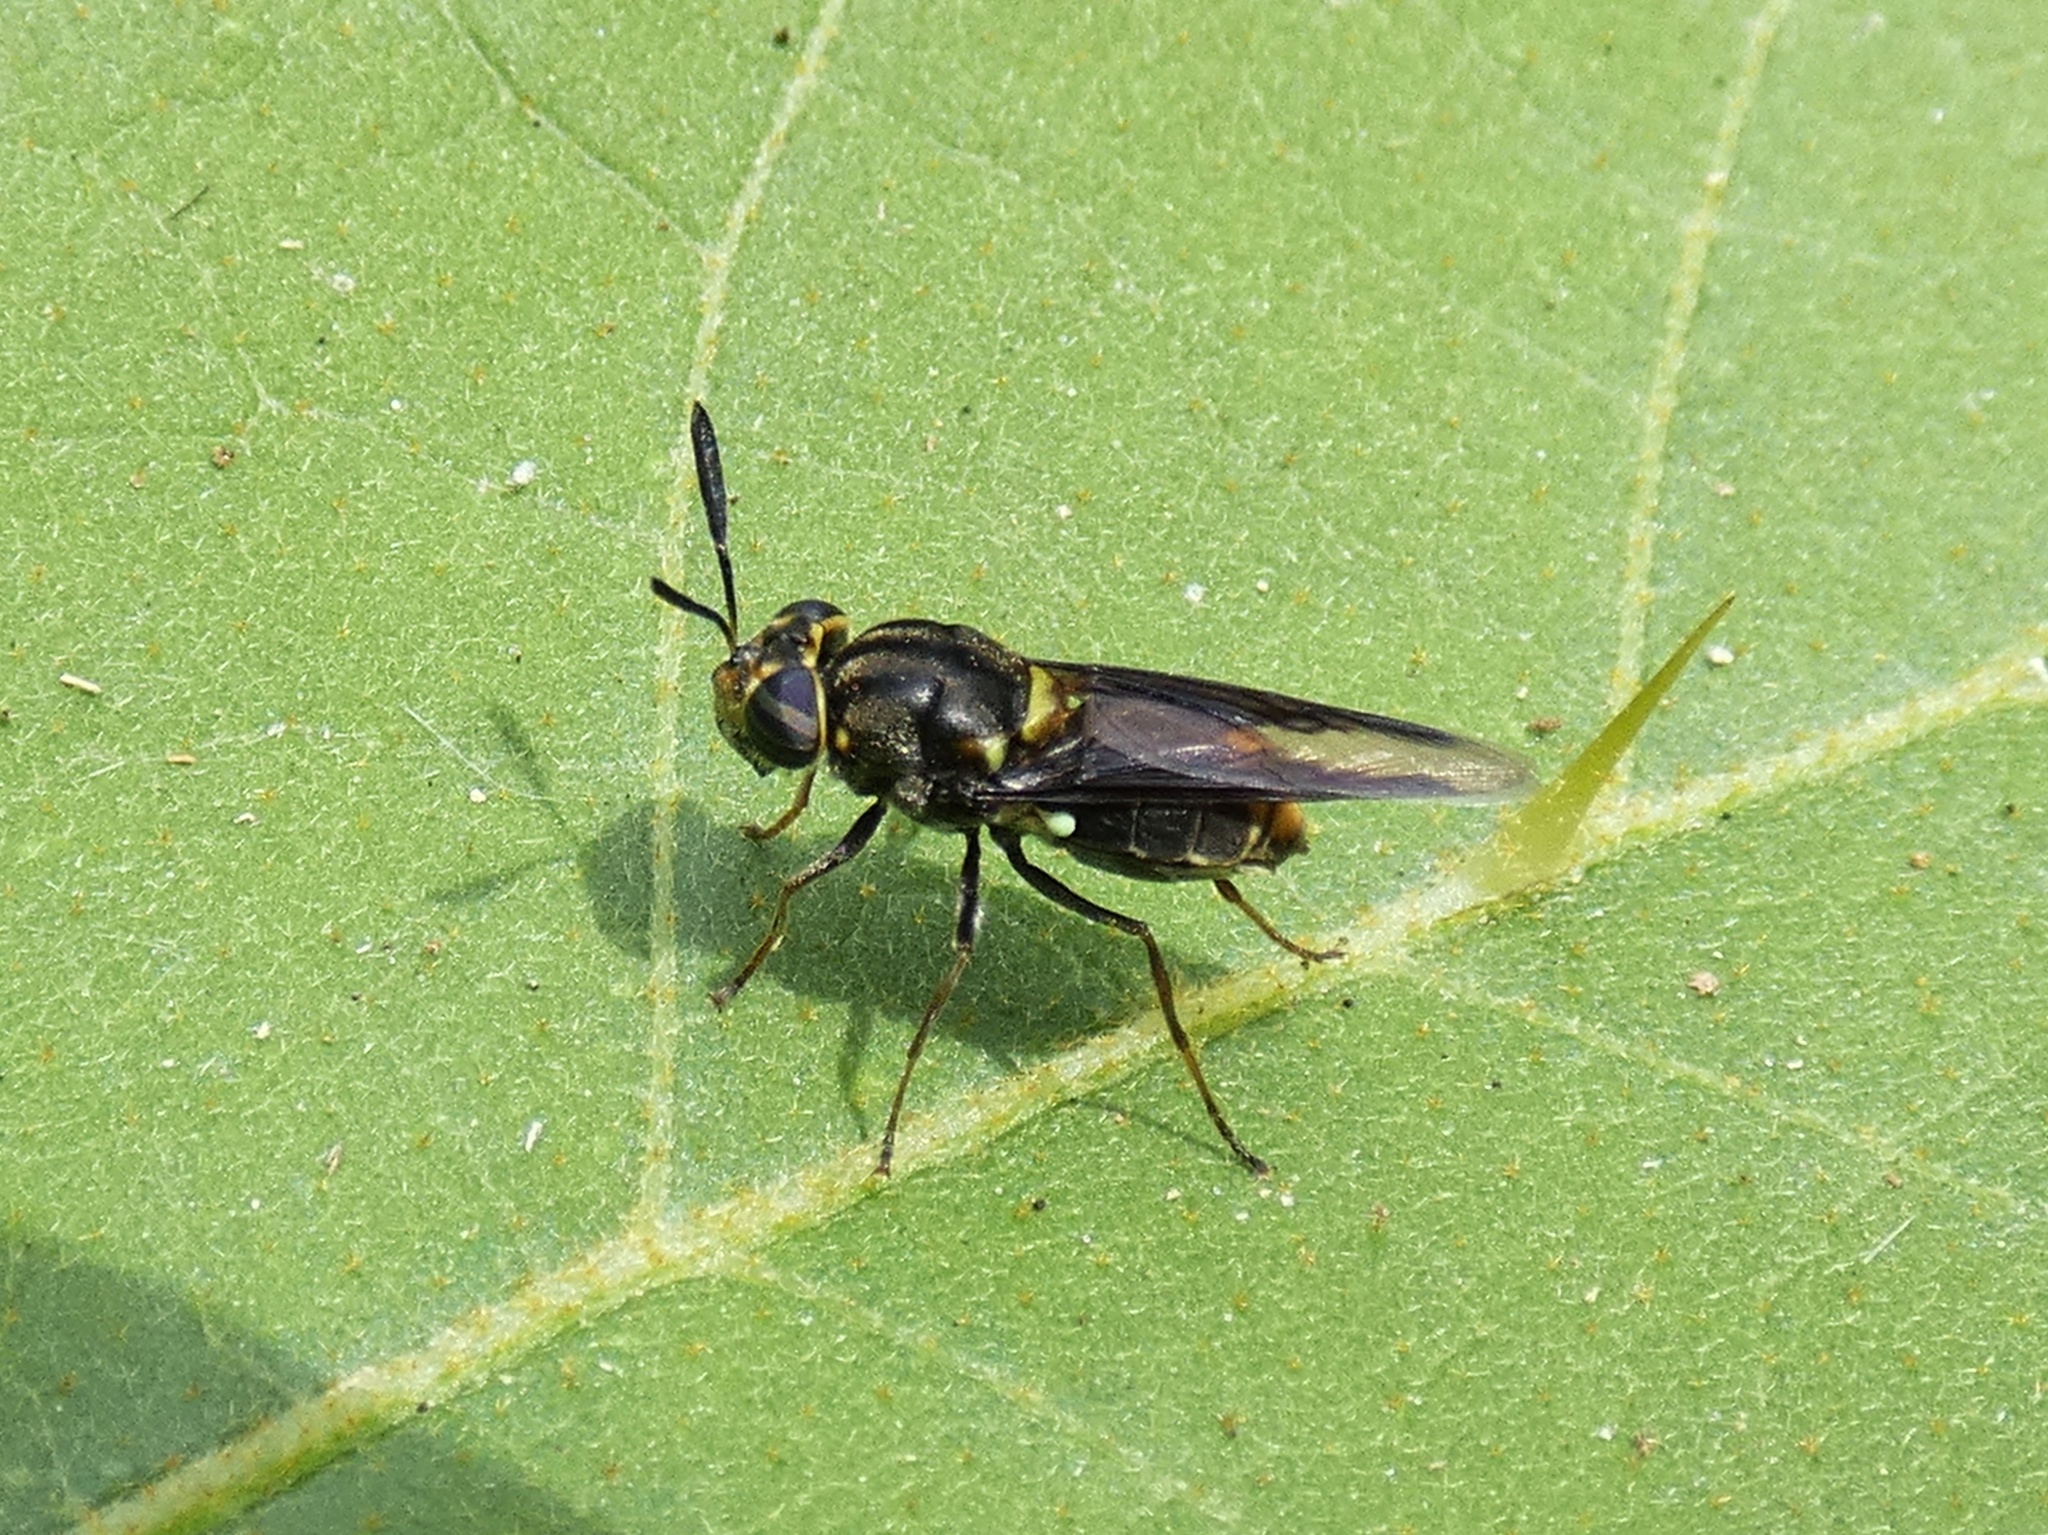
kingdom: Animalia
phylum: Arthropoda
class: Insecta
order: Diptera
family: Stratiomyidae
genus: Hoplitimyia
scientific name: Hoplitimyia panamensis
